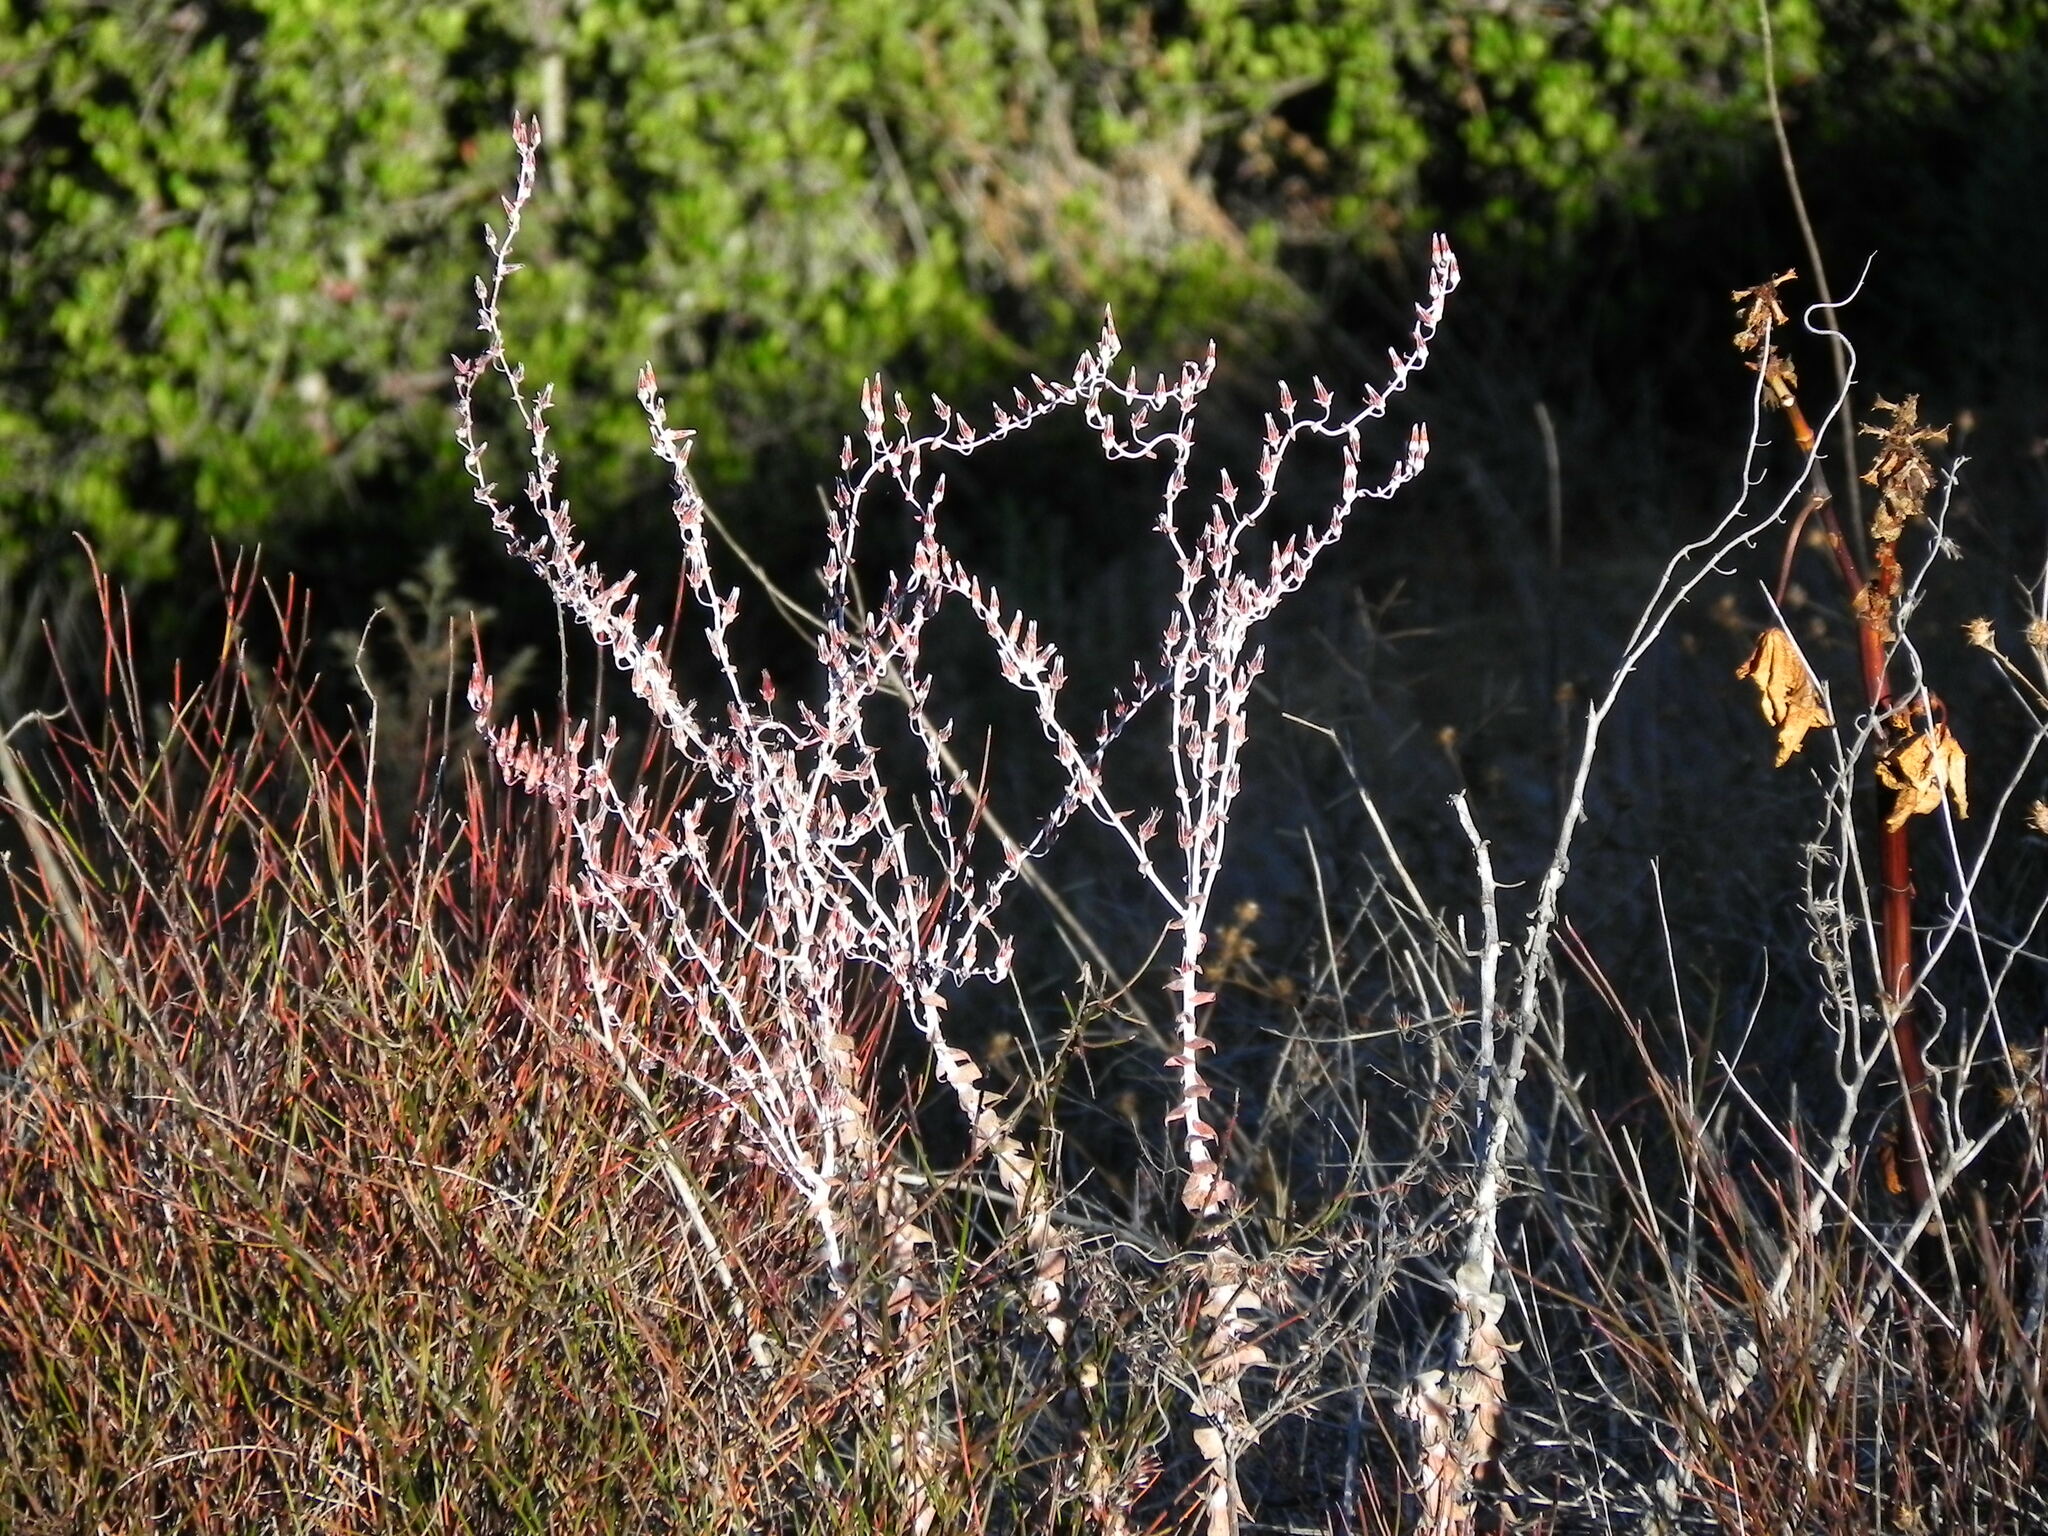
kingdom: Plantae
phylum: Tracheophyta
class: Magnoliopsida
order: Saxifragales
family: Crassulaceae
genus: Dudleya
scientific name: Dudleya pulverulenta
